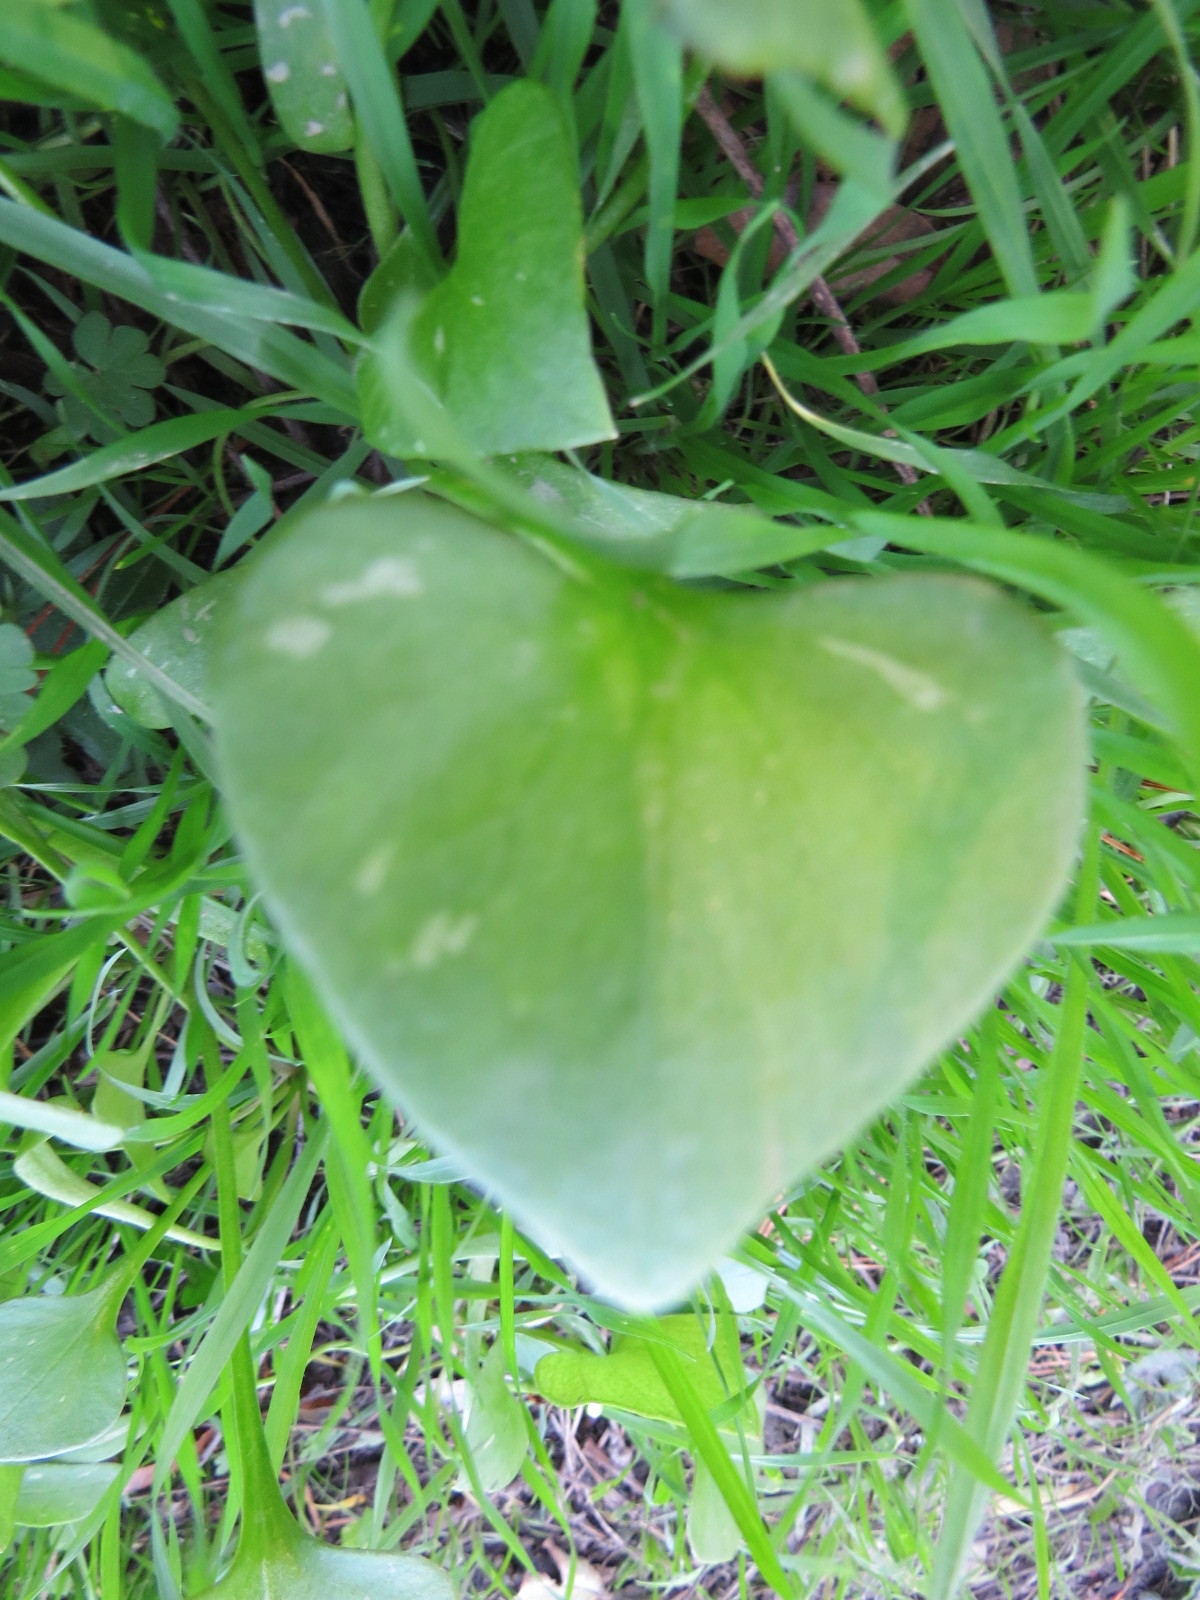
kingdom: Plantae
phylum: Tracheophyta
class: Magnoliopsida
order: Caryophyllales
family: Montiaceae
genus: Claytonia
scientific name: Claytonia perfoliata
